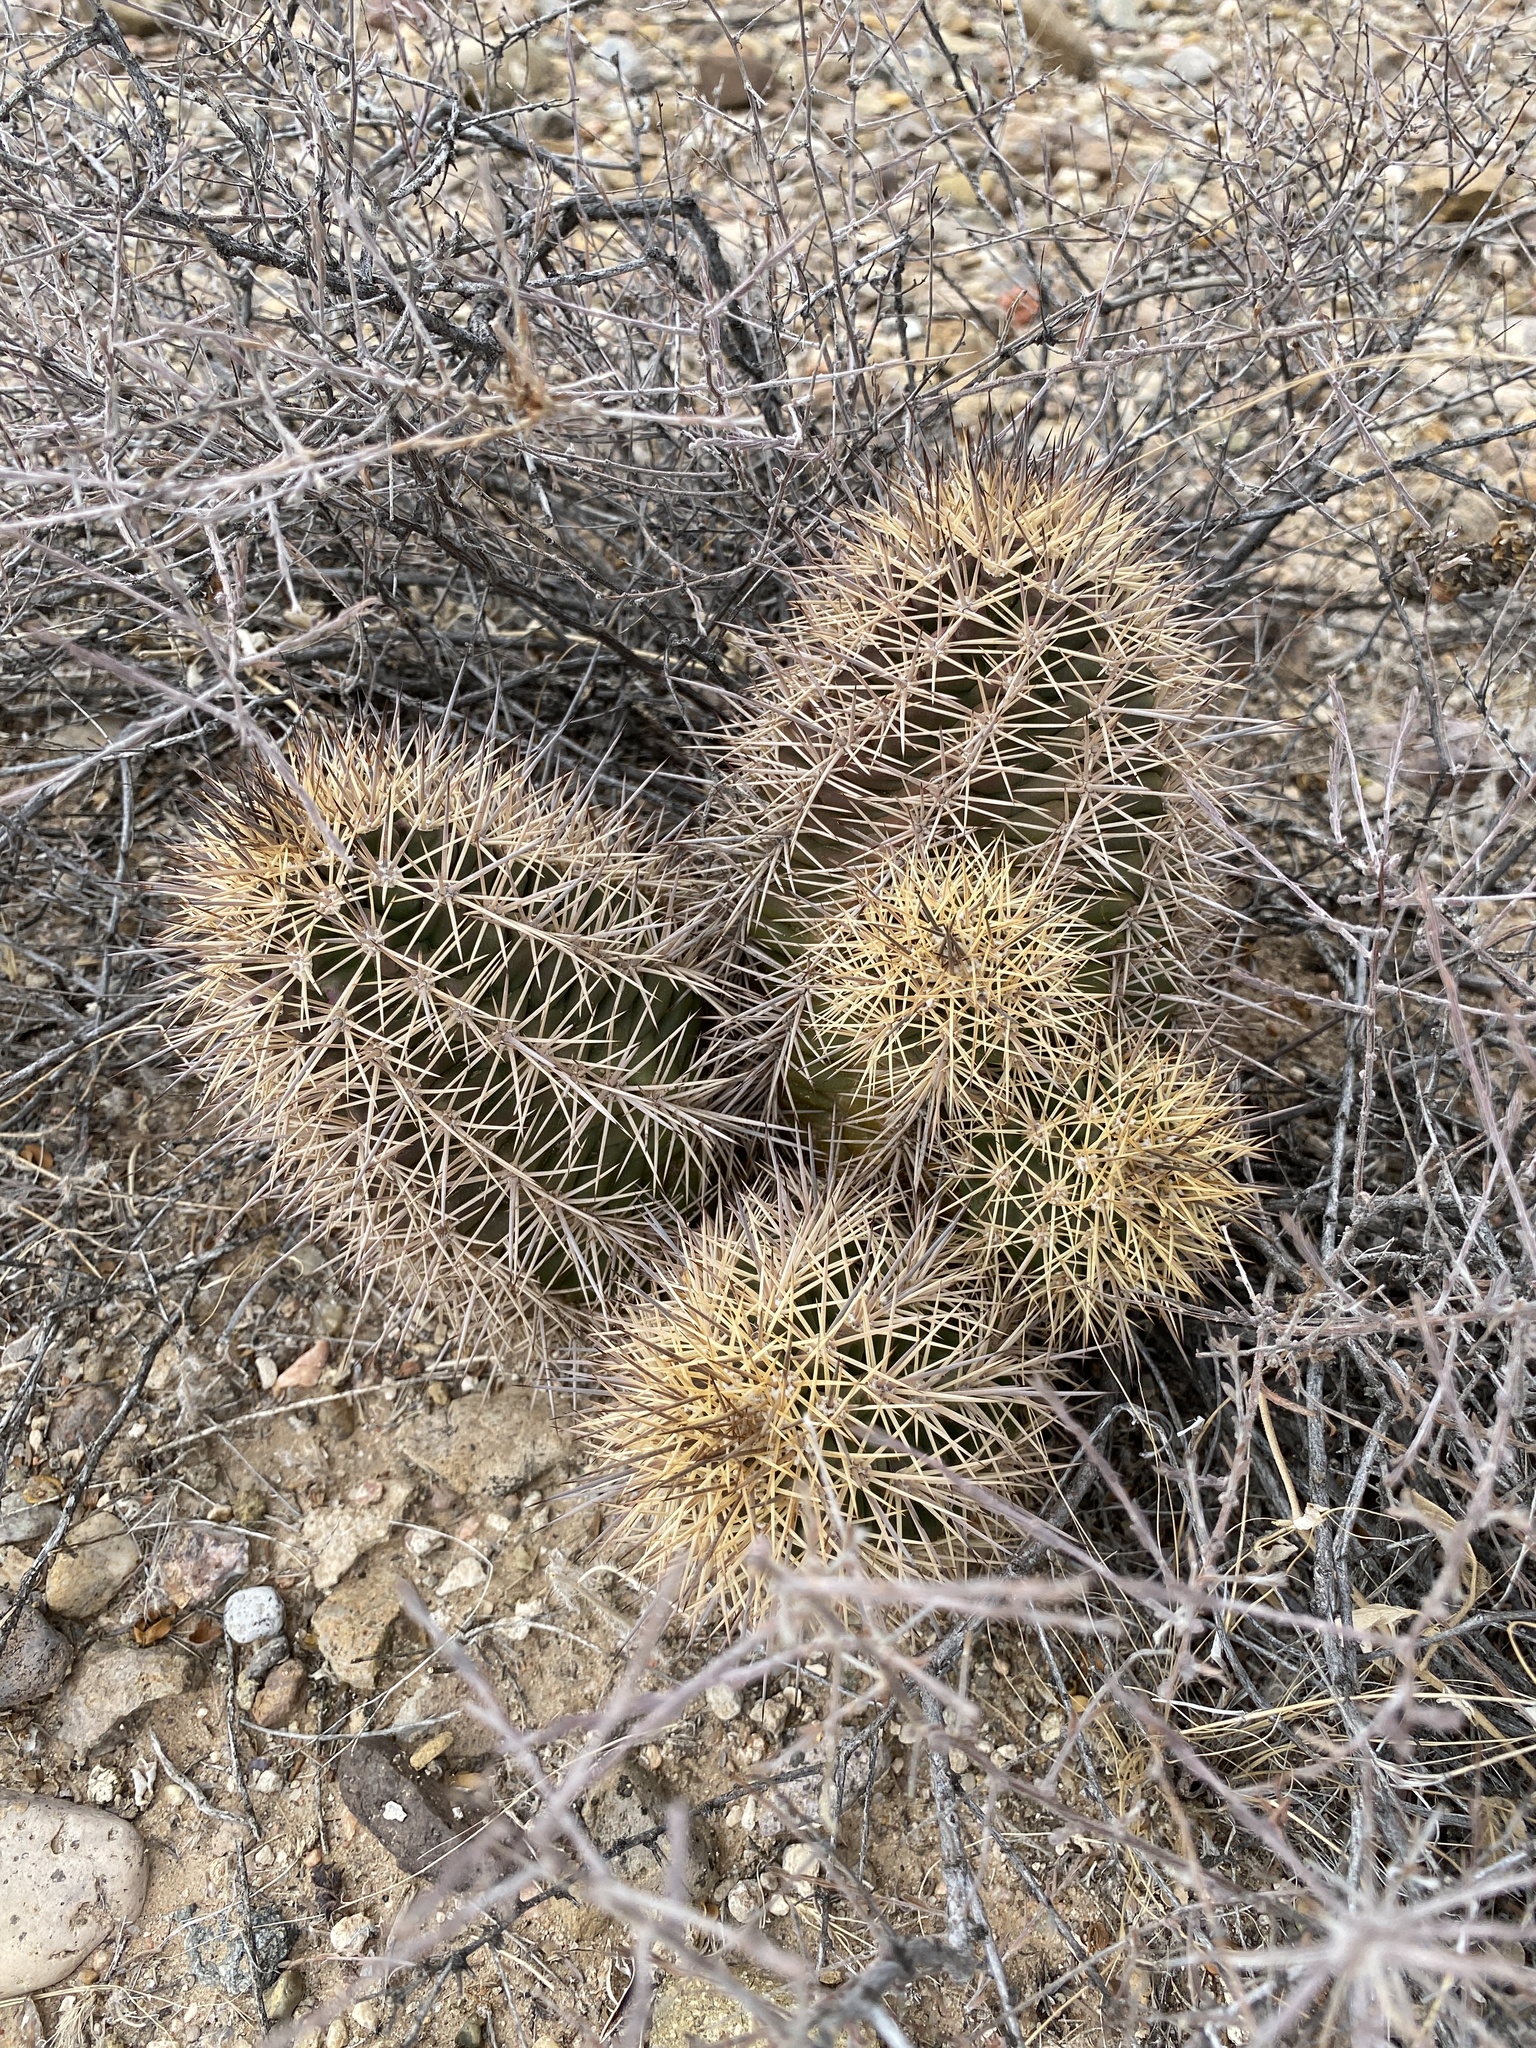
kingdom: Plantae
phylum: Tracheophyta
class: Magnoliopsida
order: Caryophyllales
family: Cactaceae
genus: Echinocereus
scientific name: Echinocereus coccineus
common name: Scarlet hedgehog cactus
